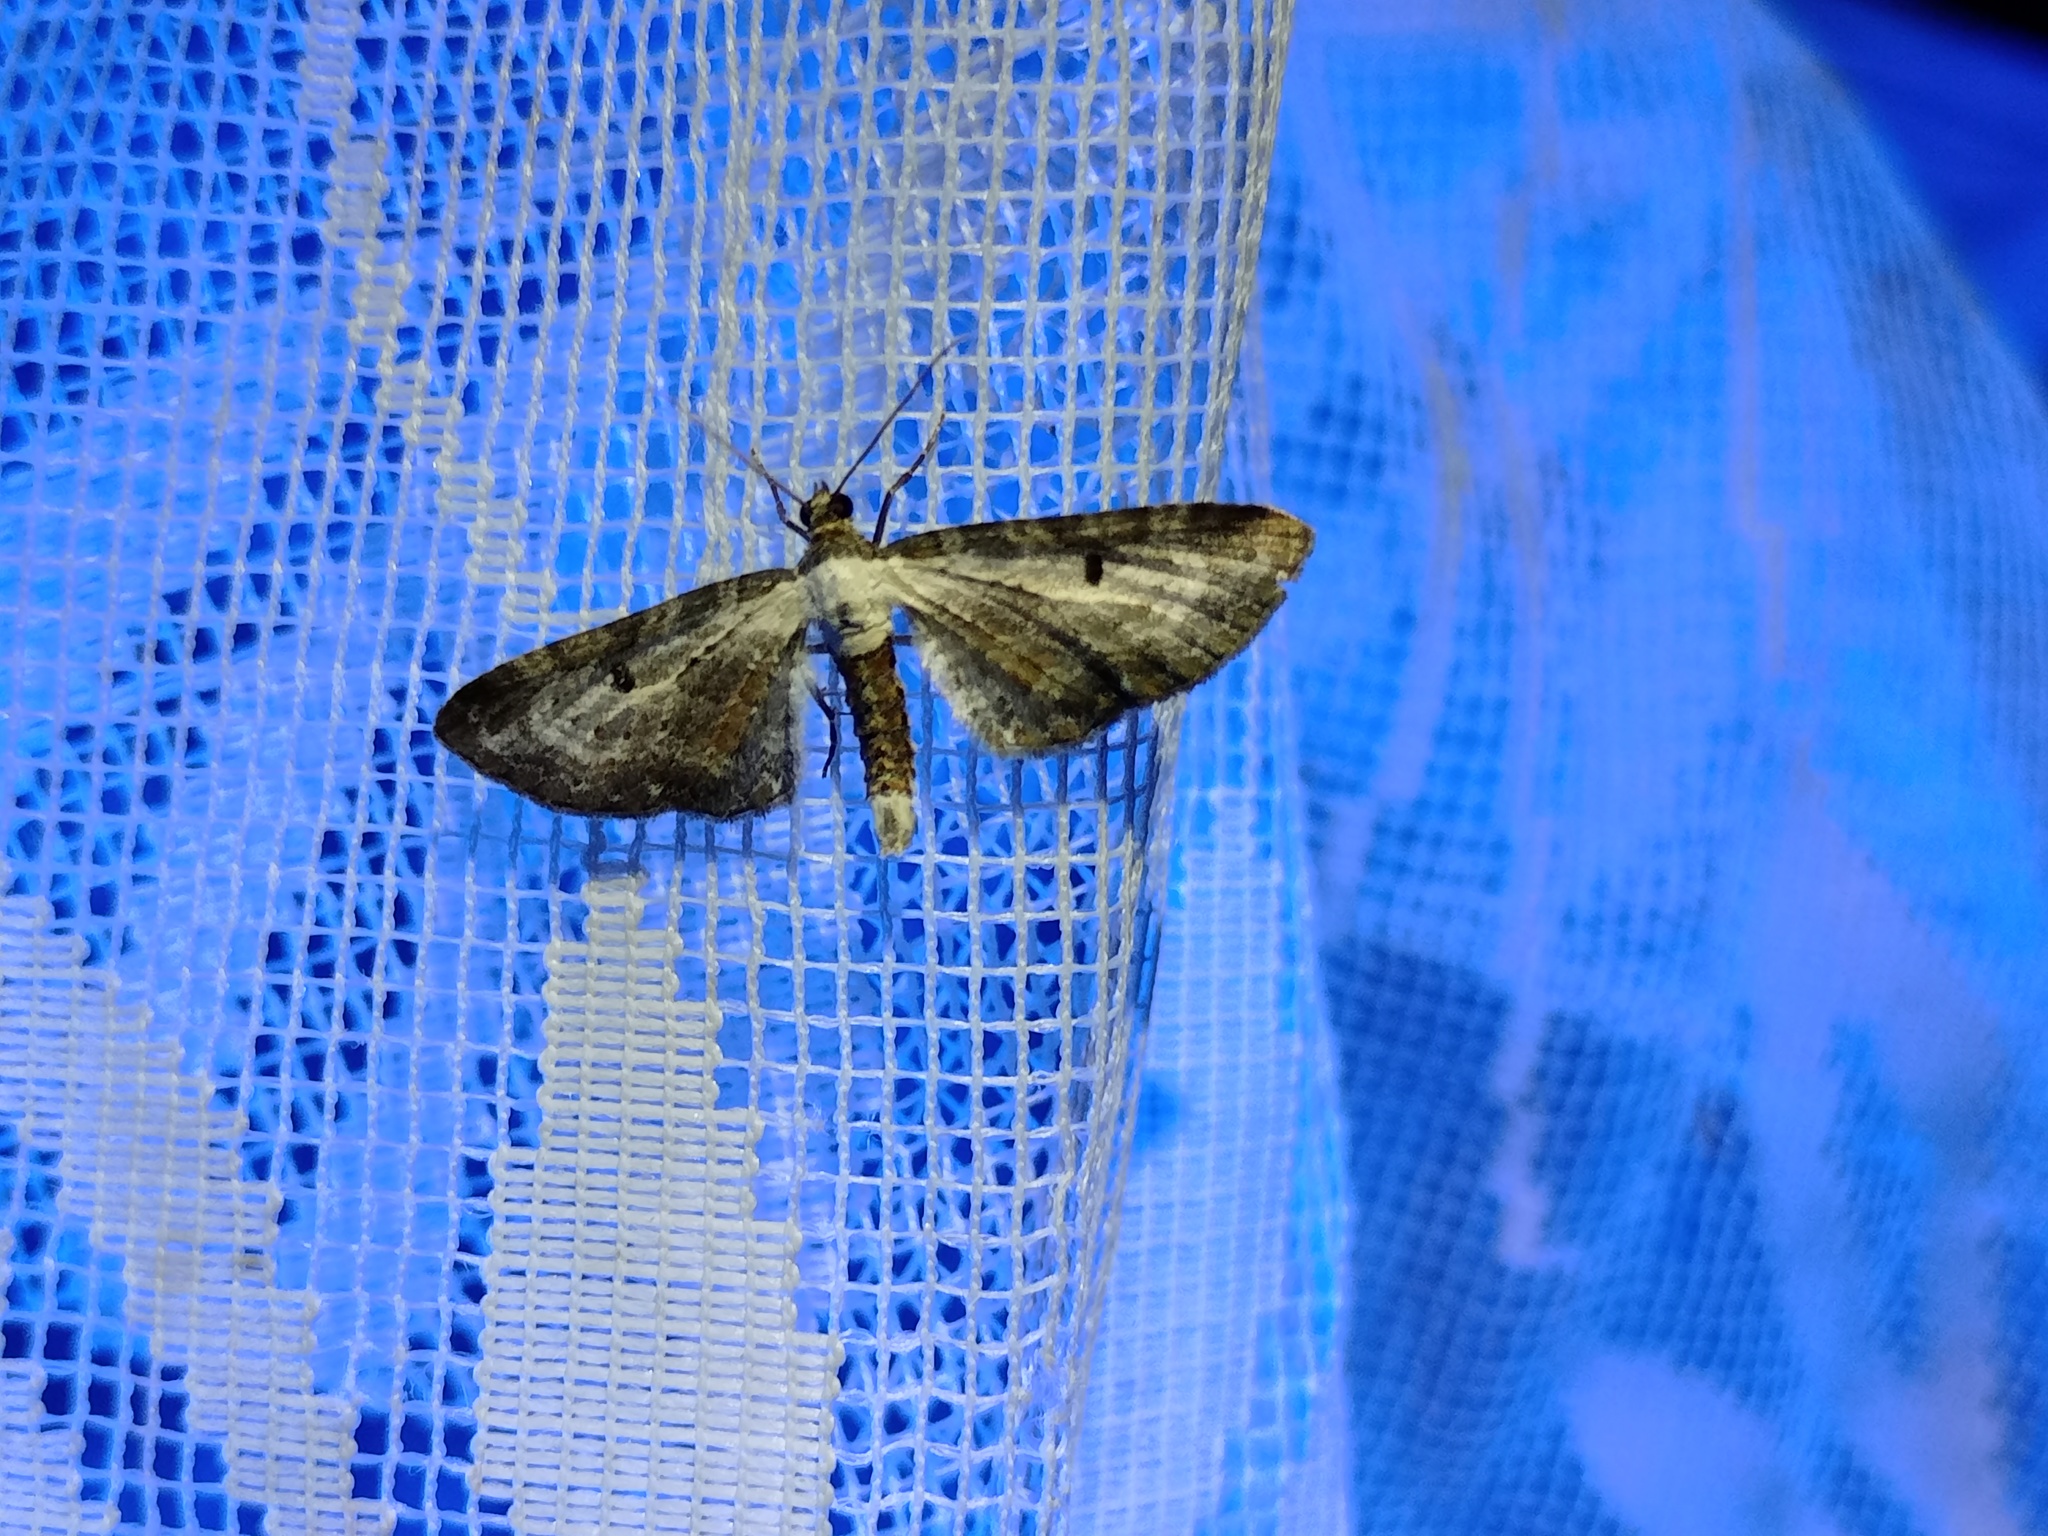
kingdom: Animalia
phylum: Arthropoda
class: Insecta
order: Lepidoptera
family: Geometridae
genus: Eupithecia
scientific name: Eupithecia succenturiata
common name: Bordered pug
